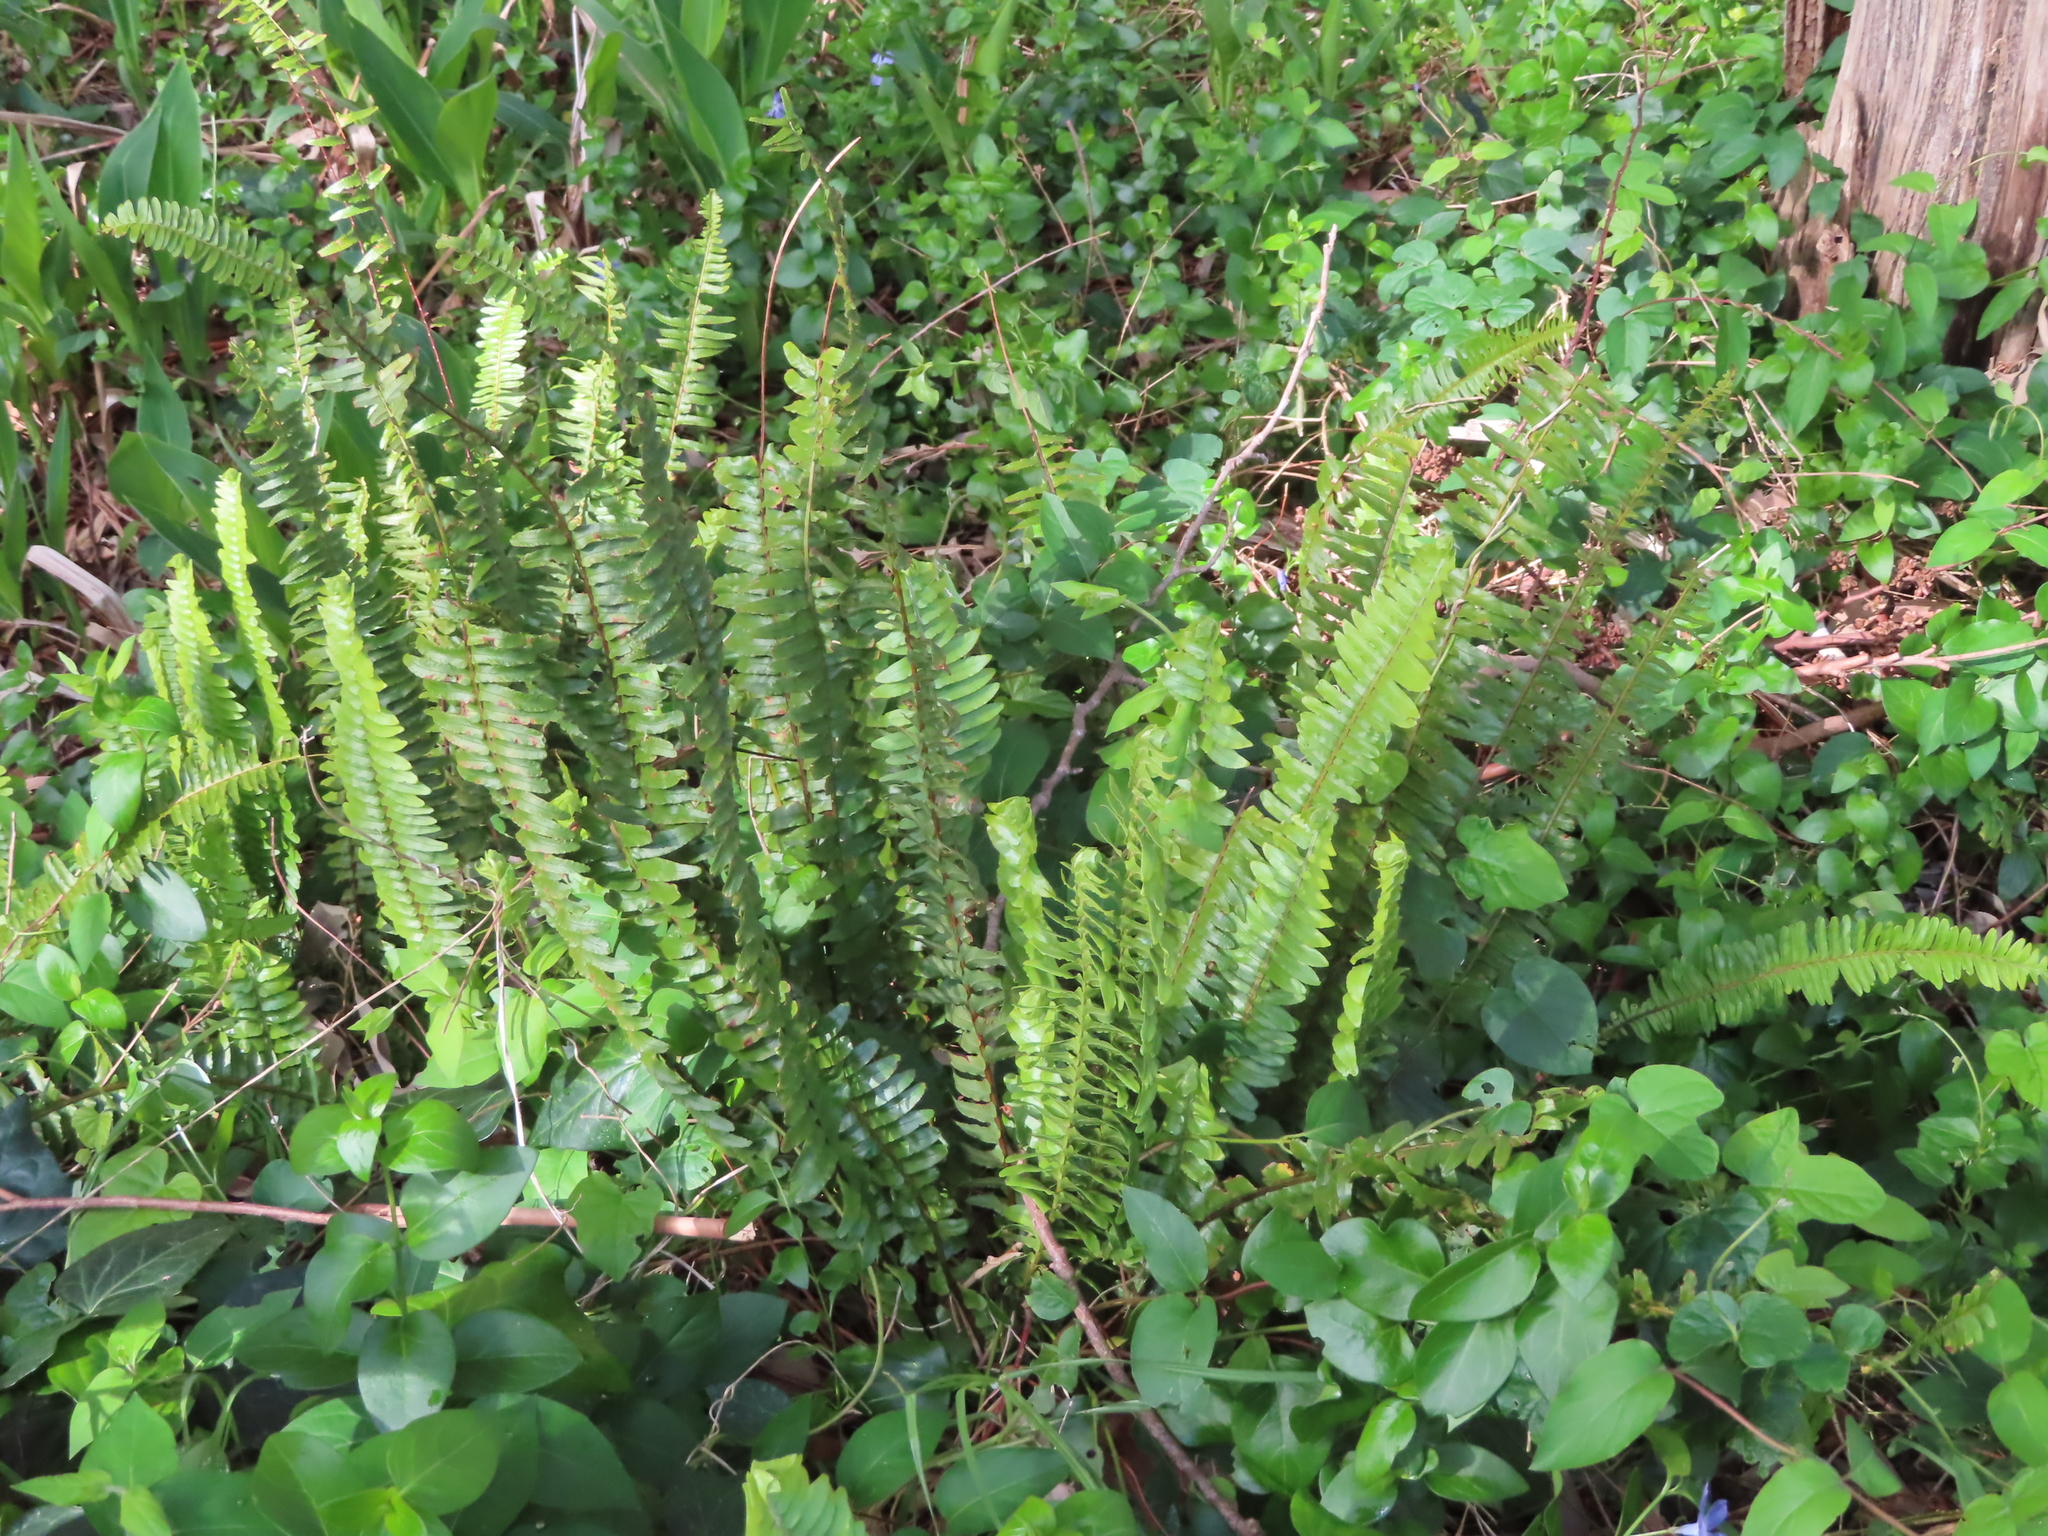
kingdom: Plantae
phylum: Tracheophyta
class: Polypodiopsida
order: Polypodiales
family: Nephrolepidaceae
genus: Nephrolepis
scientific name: Nephrolepis cordifolia
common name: Narrow swordfern
